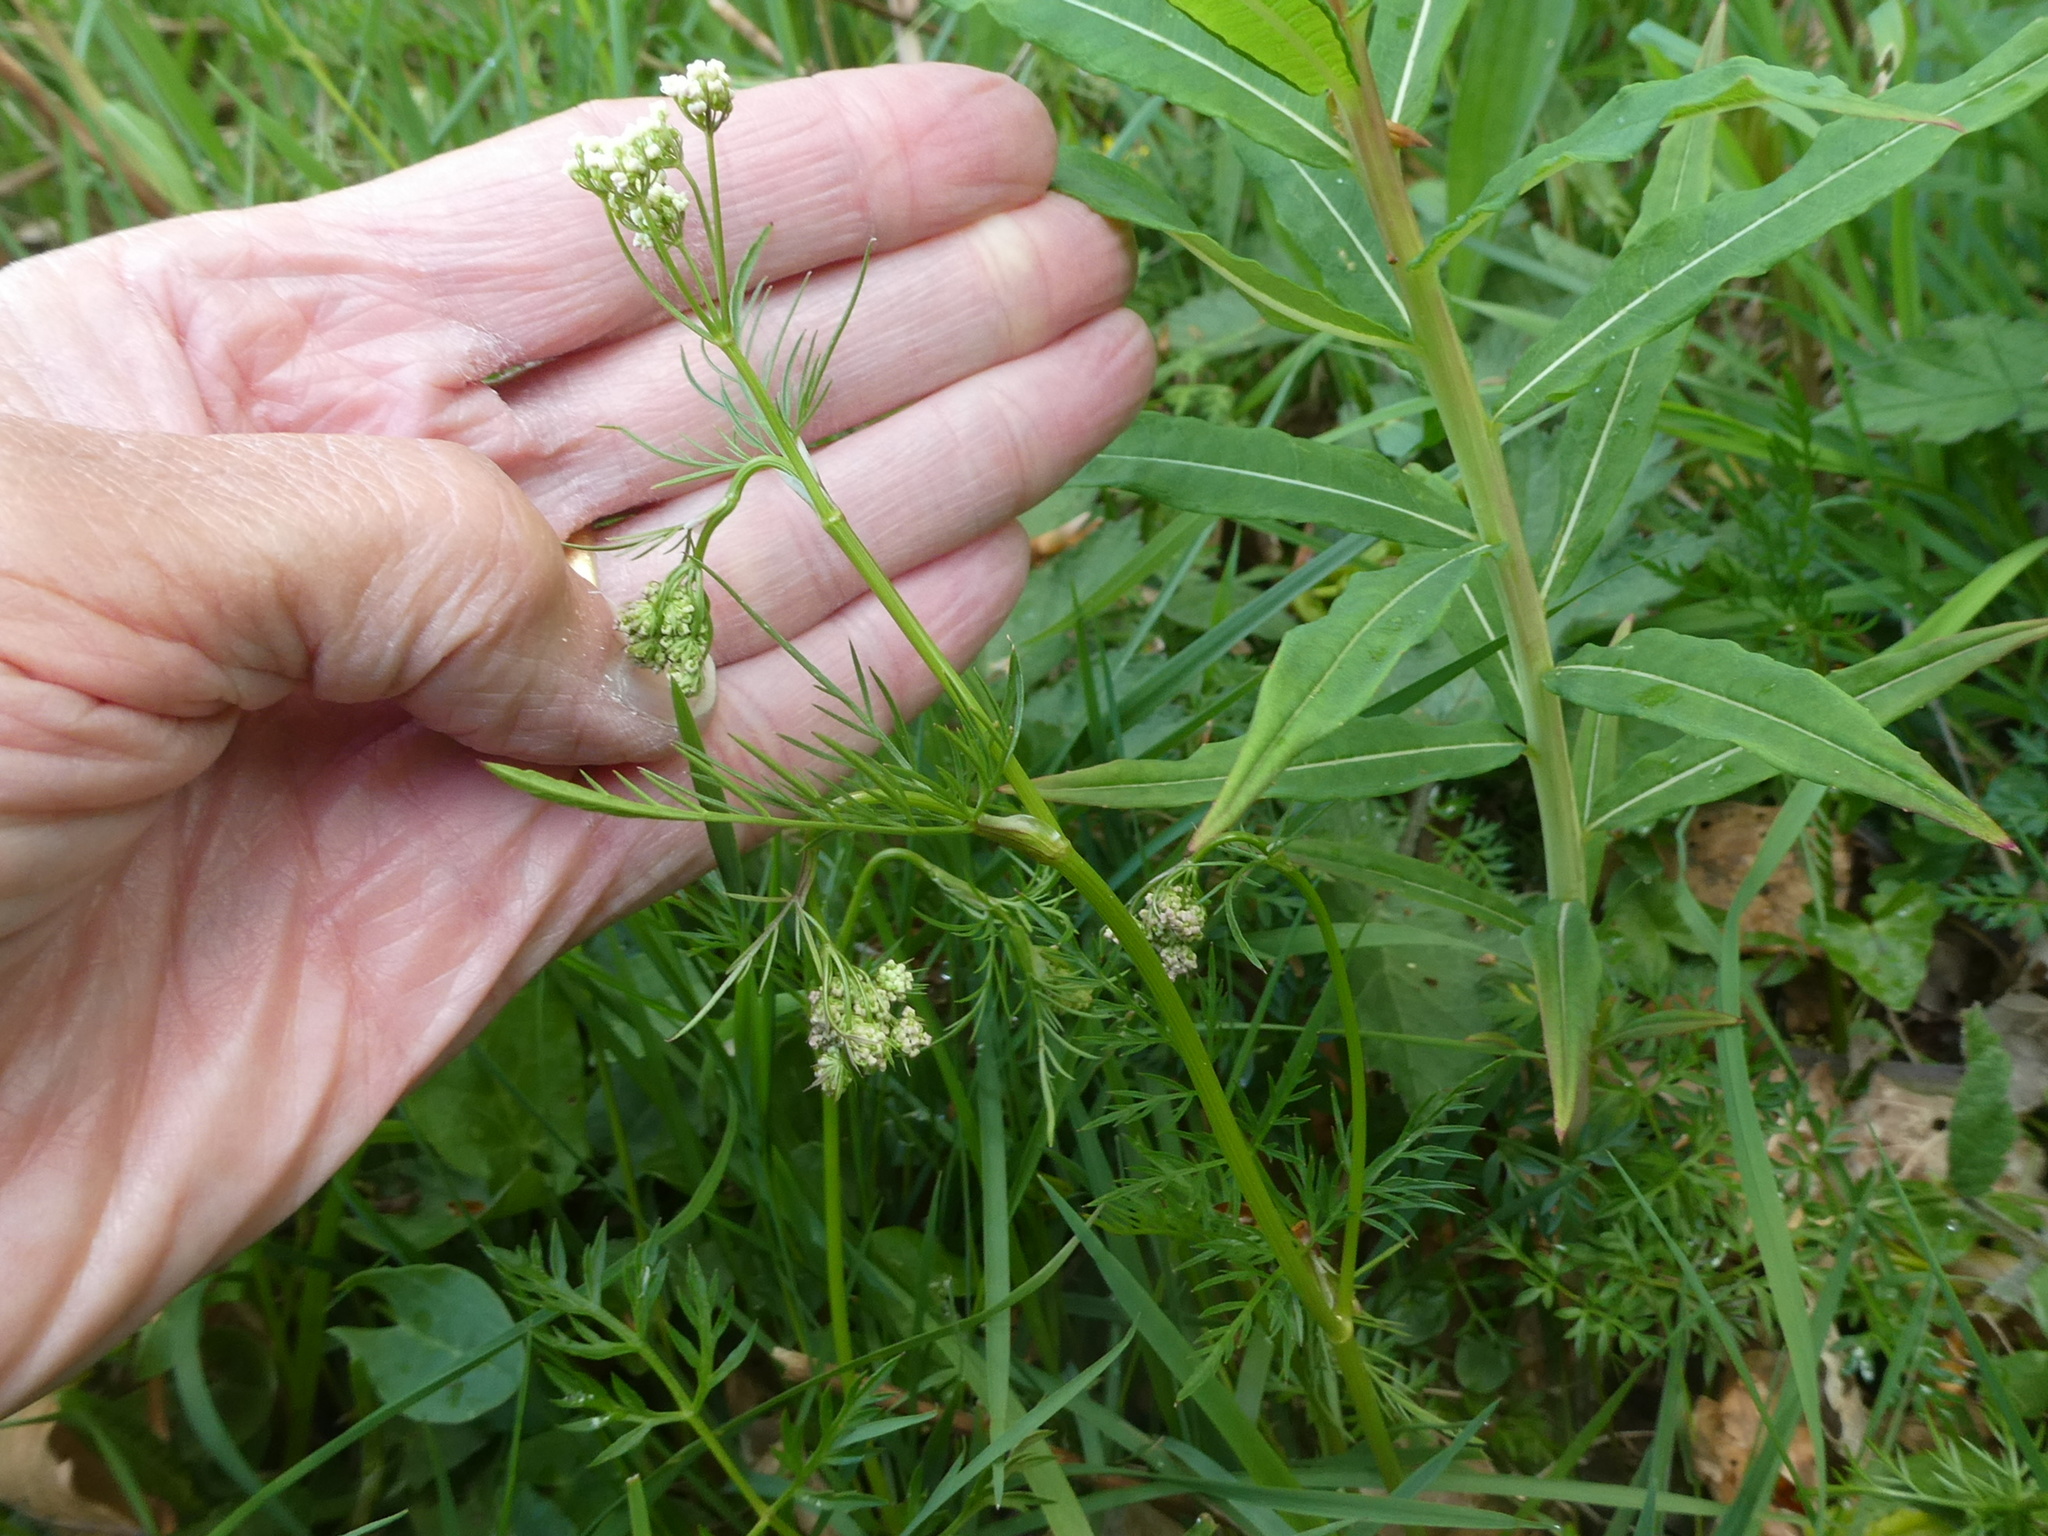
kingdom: Plantae
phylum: Tracheophyta
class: Magnoliopsida
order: Apiales
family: Apiaceae
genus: Conopodium
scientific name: Conopodium majus
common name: Pignut
